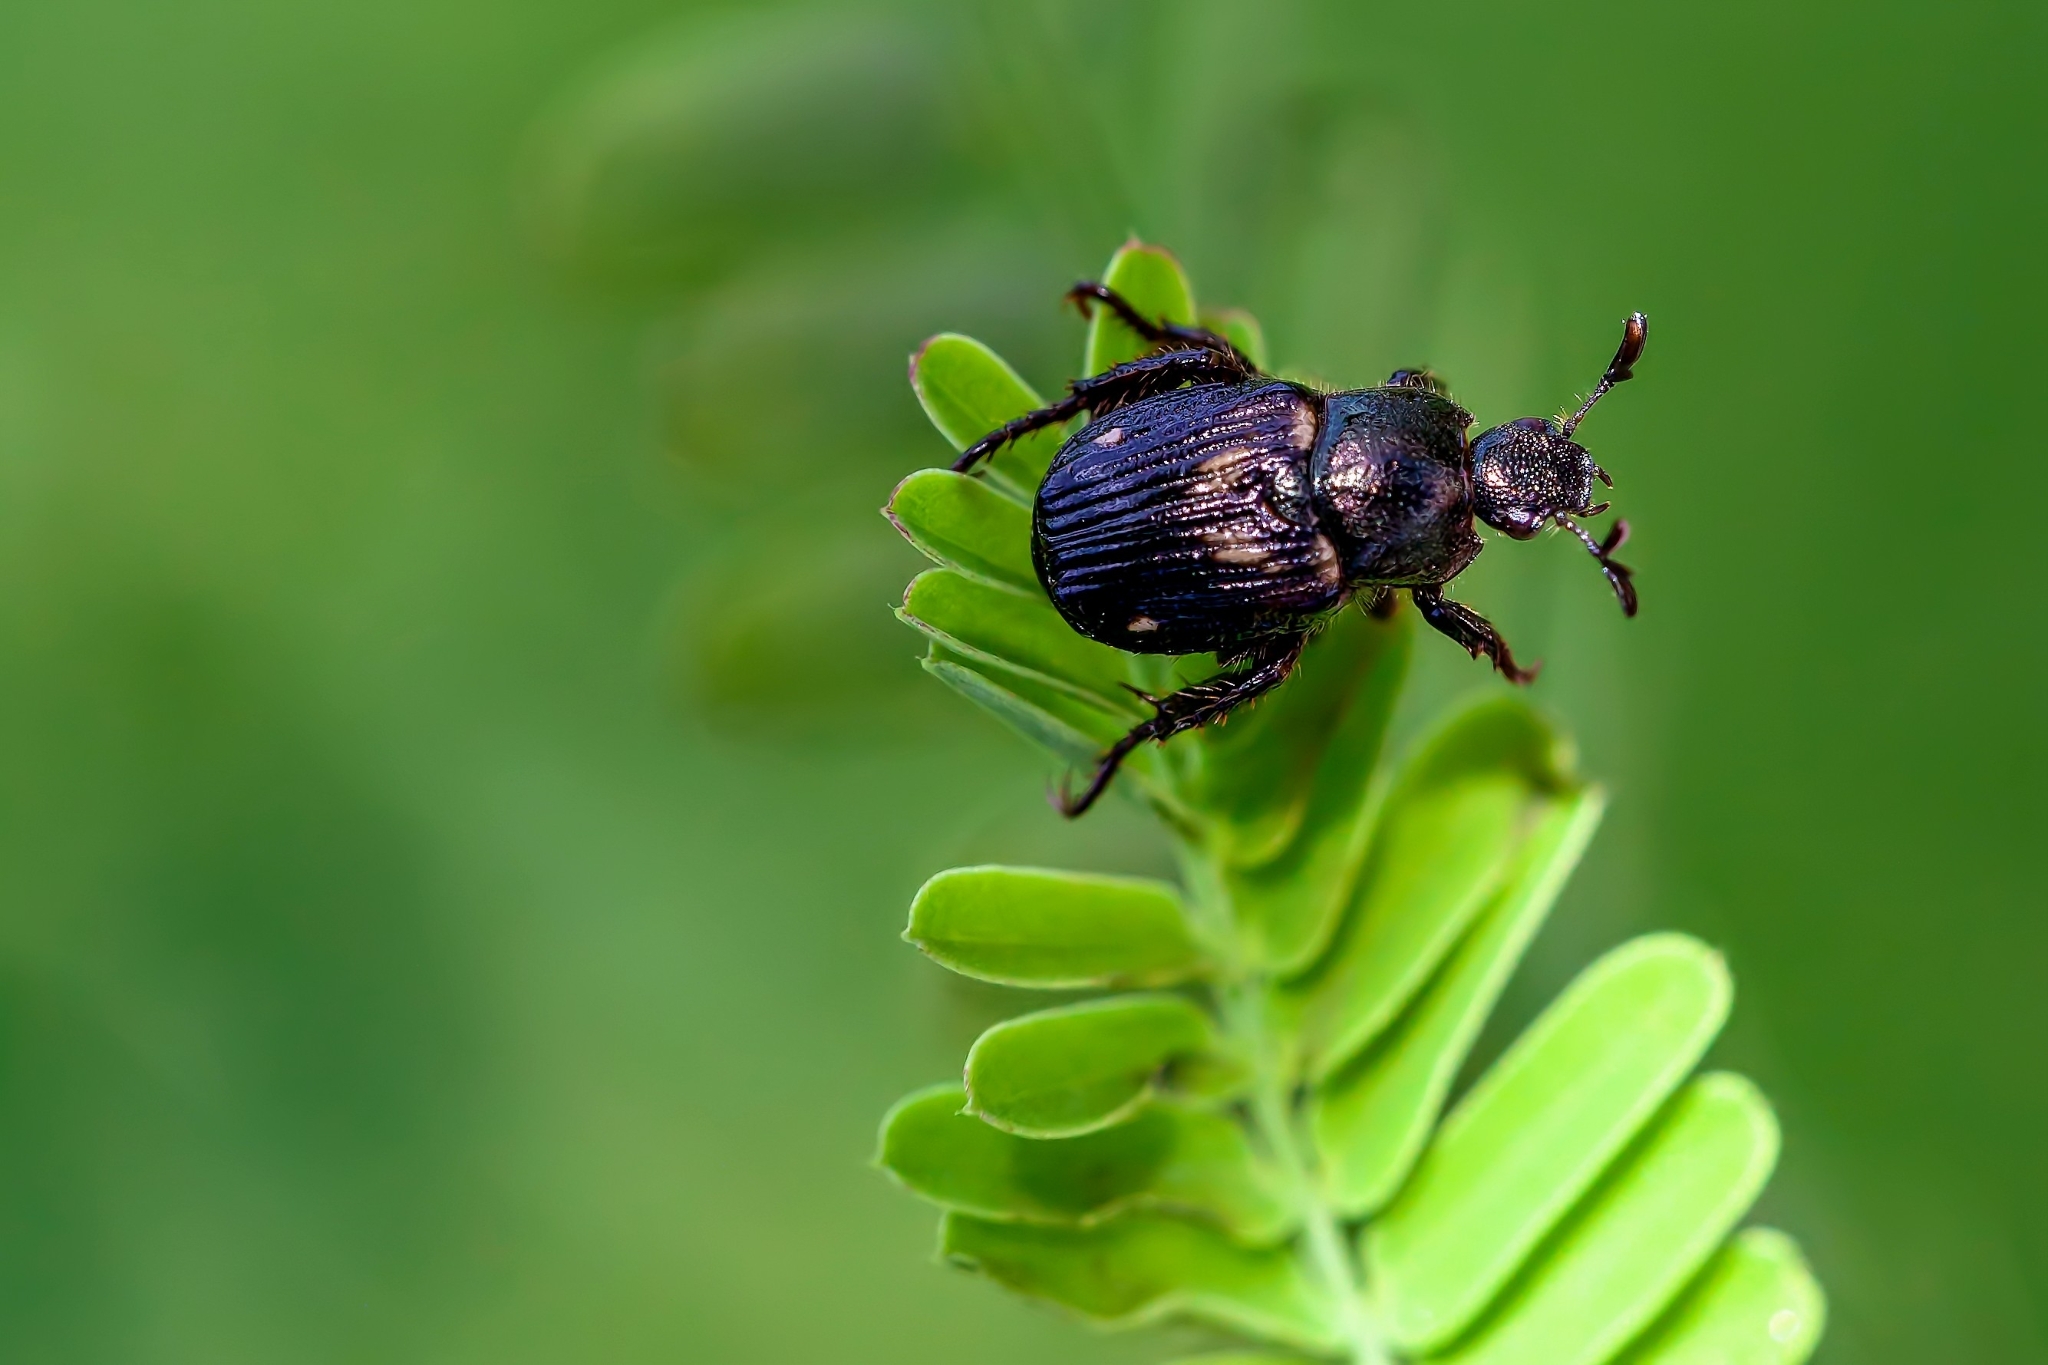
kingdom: Animalia
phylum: Arthropoda
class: Insecta
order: Coleoptera
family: Scarabaeidae
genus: Strigoderma
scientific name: Strigoderma pygmaea
